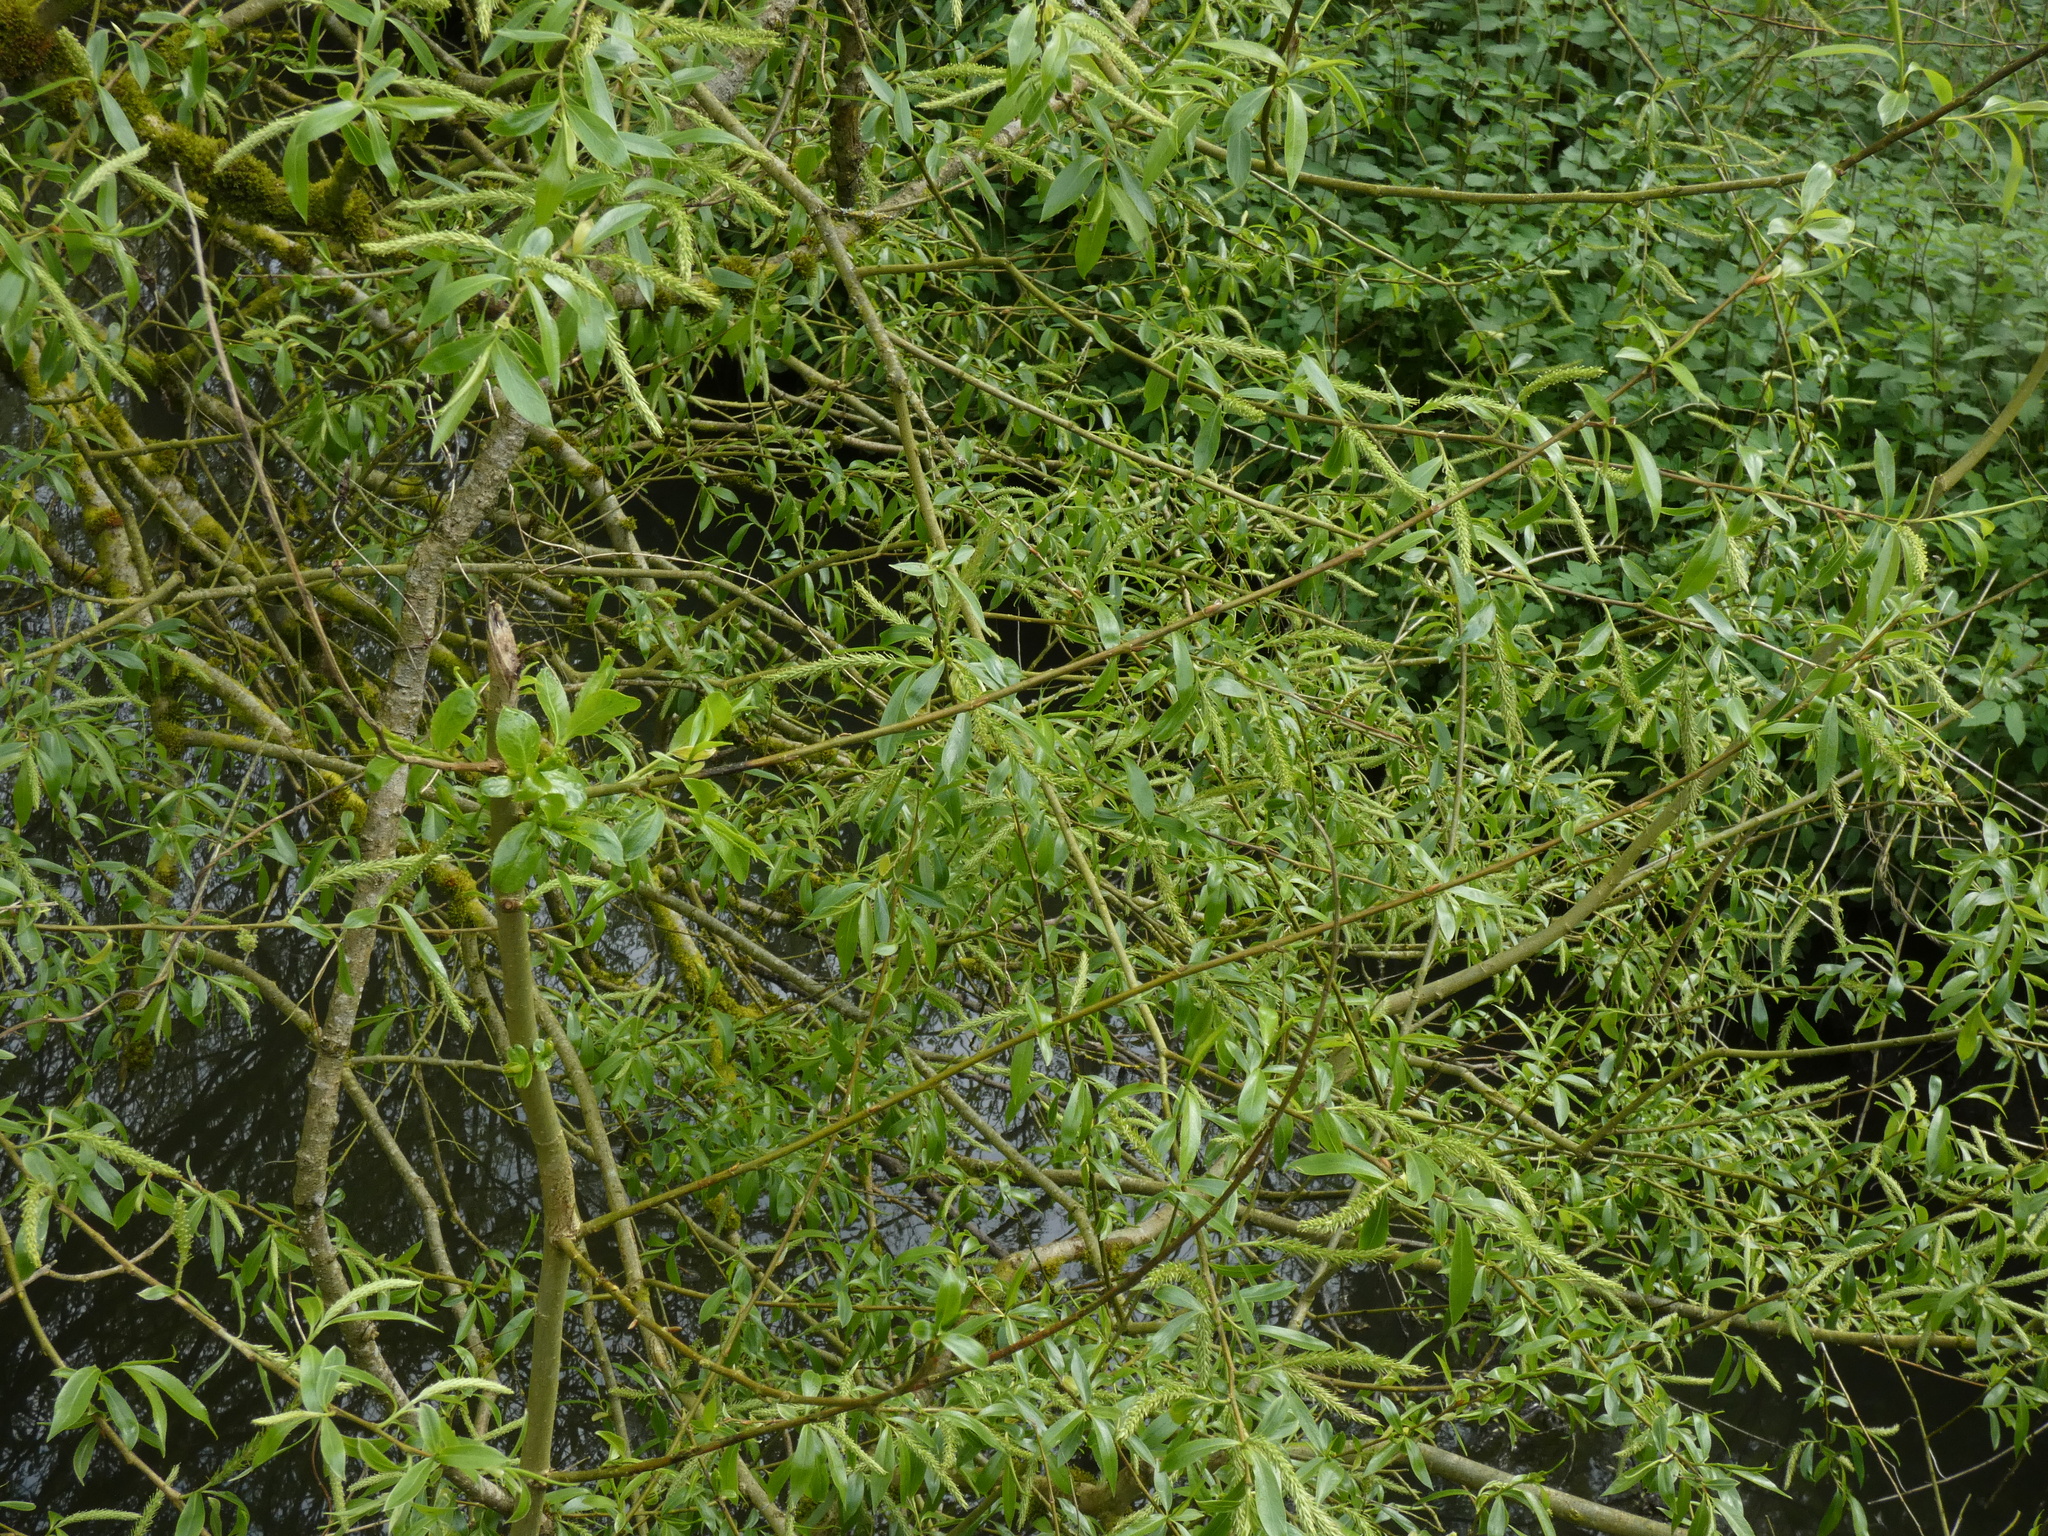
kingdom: Plantae
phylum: Tracheophyta
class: Magnoliopsida
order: Malpighiales
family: Salicaceae
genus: Salix
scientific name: Salix fragilis
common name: Crack willow
